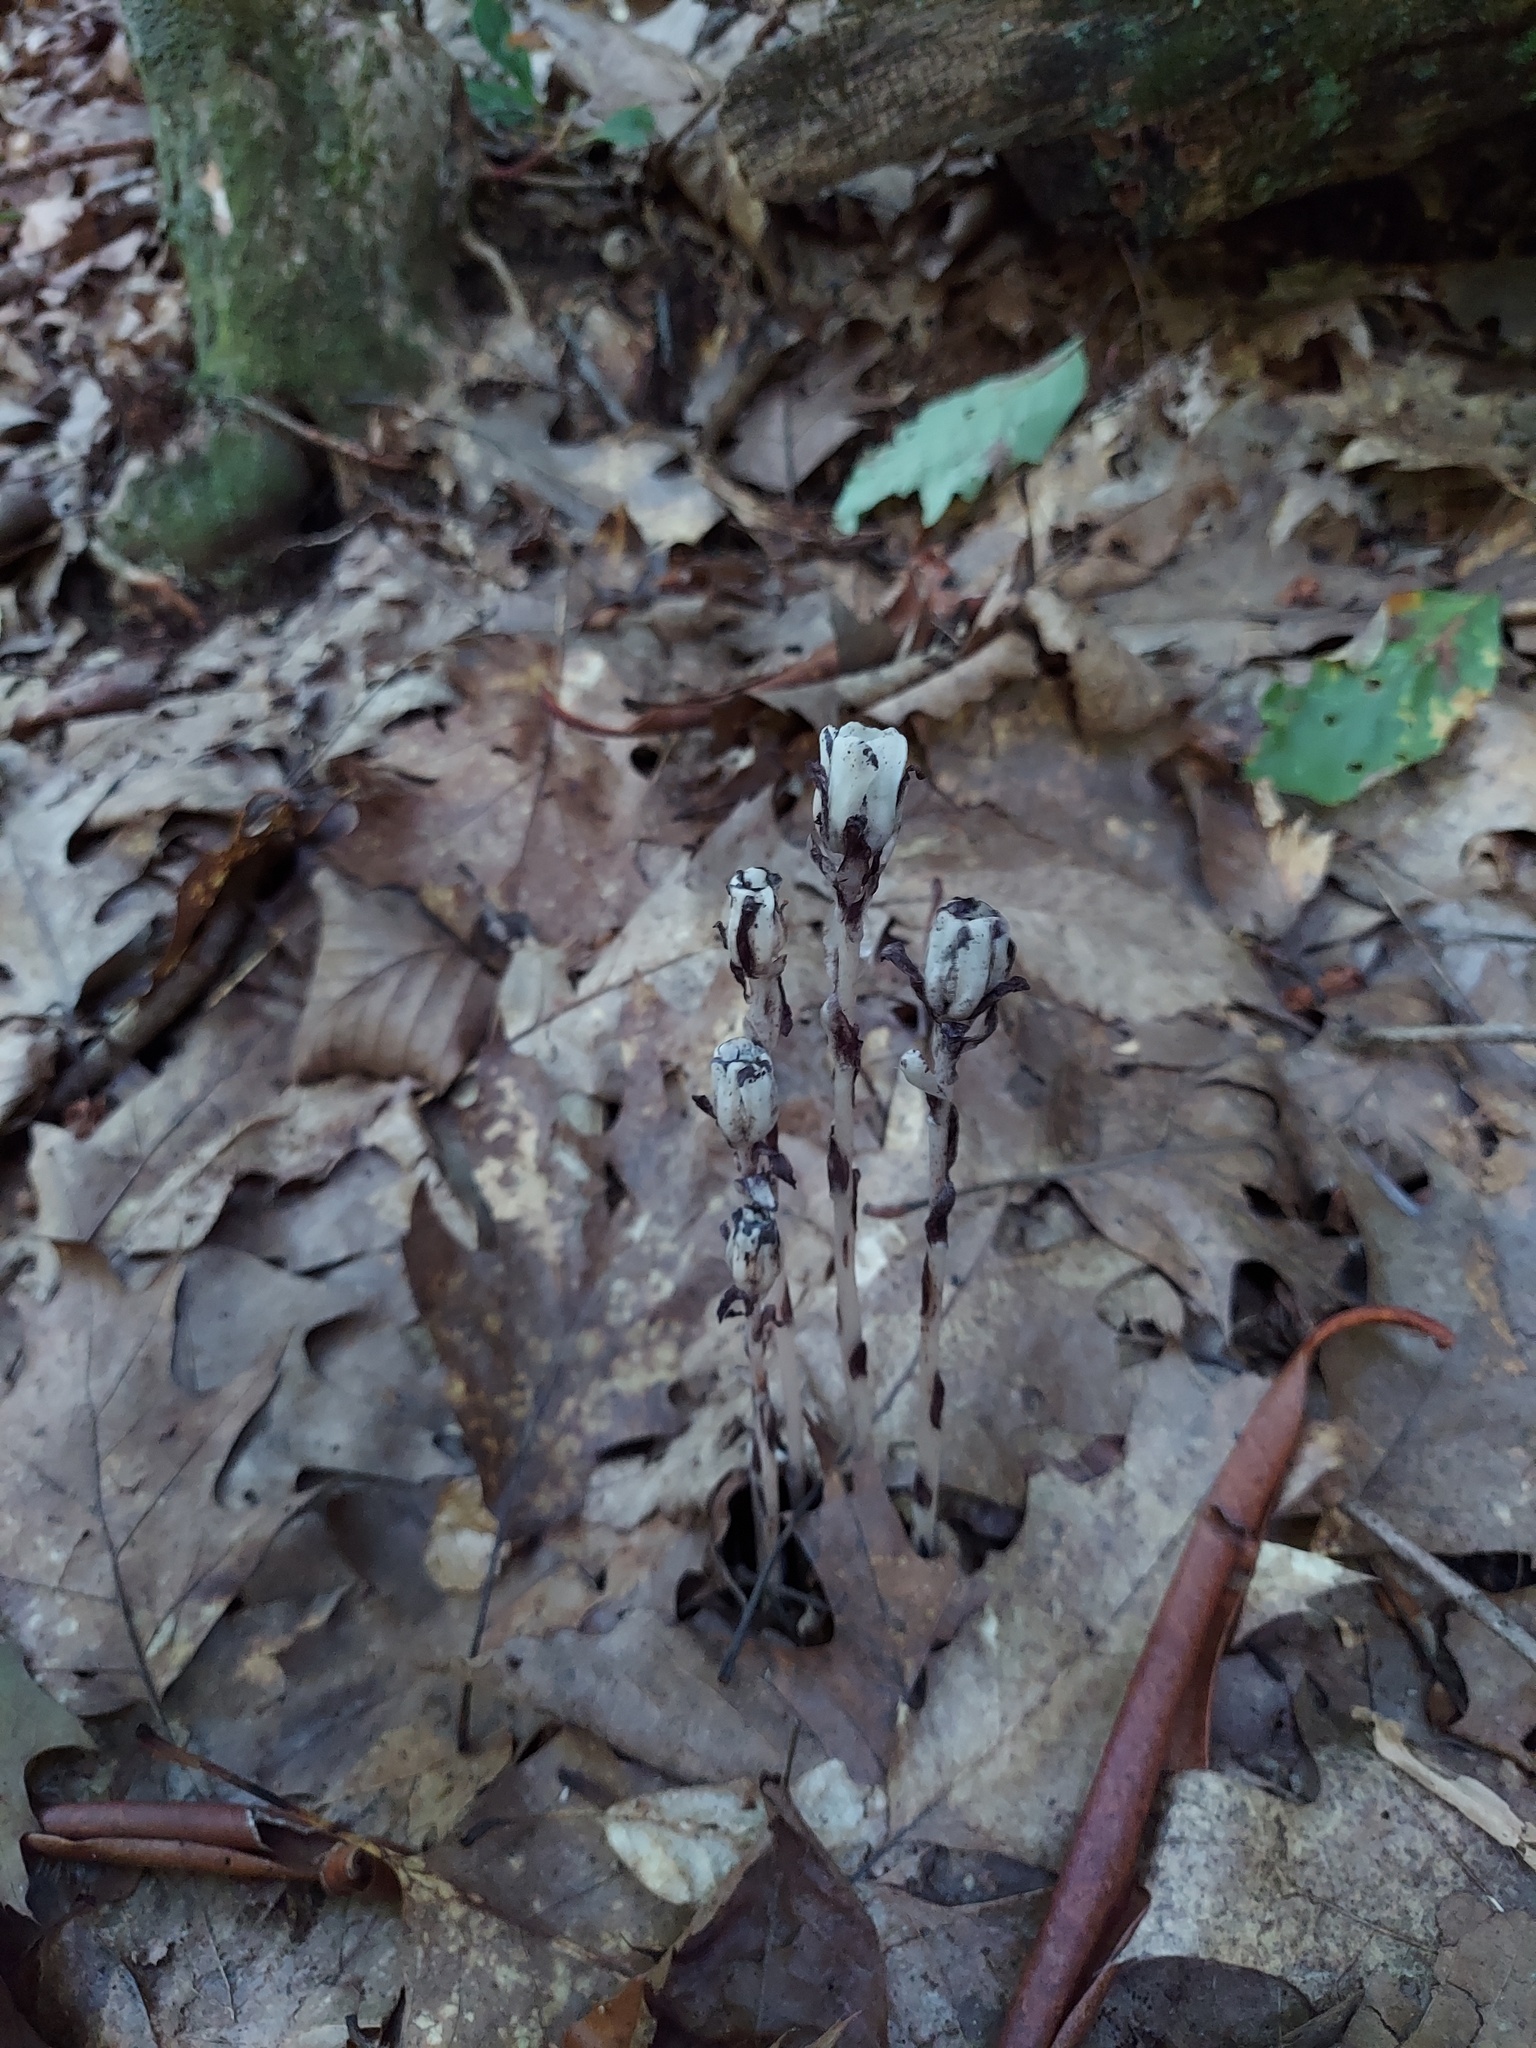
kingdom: Plantae
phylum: Tracheophyta
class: Magnoliopsida
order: Ericales
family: Ericaceae
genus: Monotropa
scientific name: Monotropa uniflora
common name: Convulsion root
